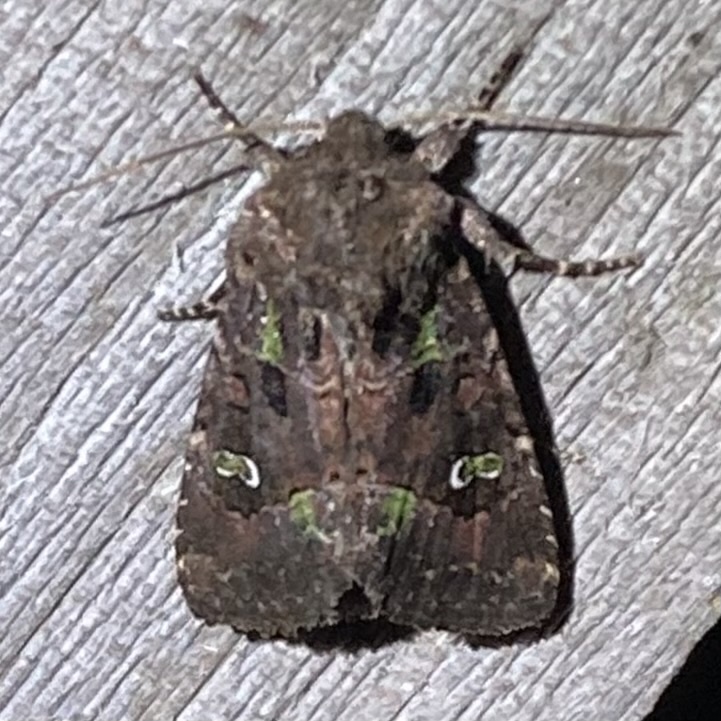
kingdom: Animalia
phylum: Arthropoda
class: Insecta
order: Lepidoptera
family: Noctuidae
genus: Lacinipolia
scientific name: Lacinipolia renigera
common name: Kidney-spotted minor
